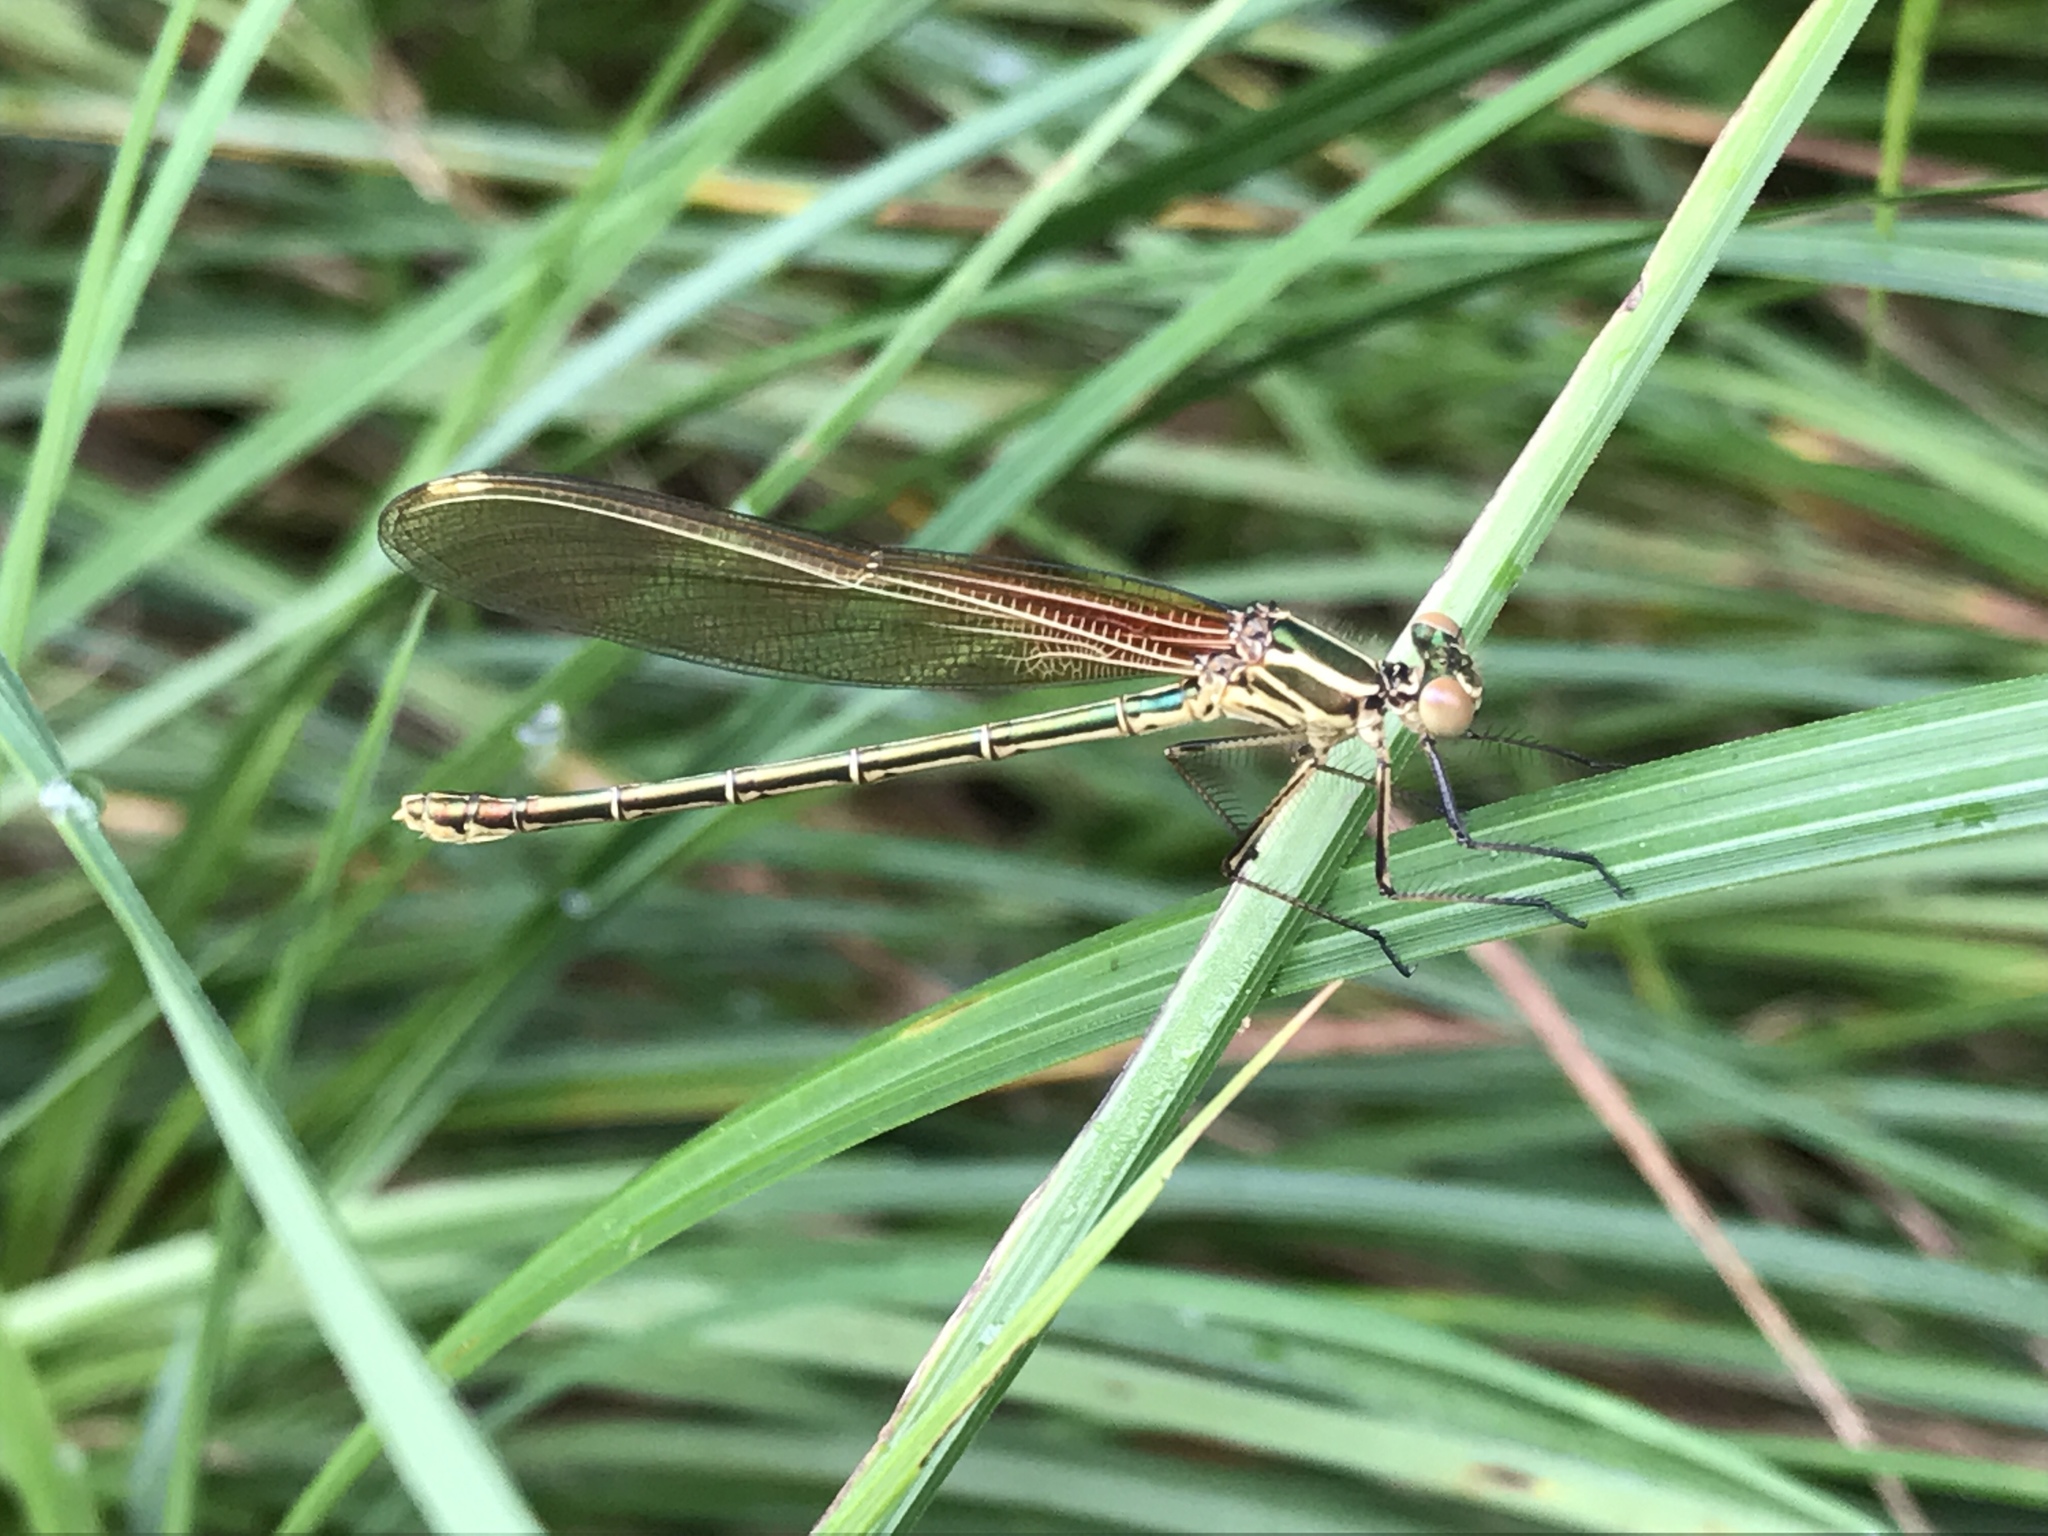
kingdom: Animalia
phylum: Arthropoda
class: Insecta
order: Odonata
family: Calopterygidae
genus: Hetaerina
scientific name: Hetaerina americana
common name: American rubyspot
